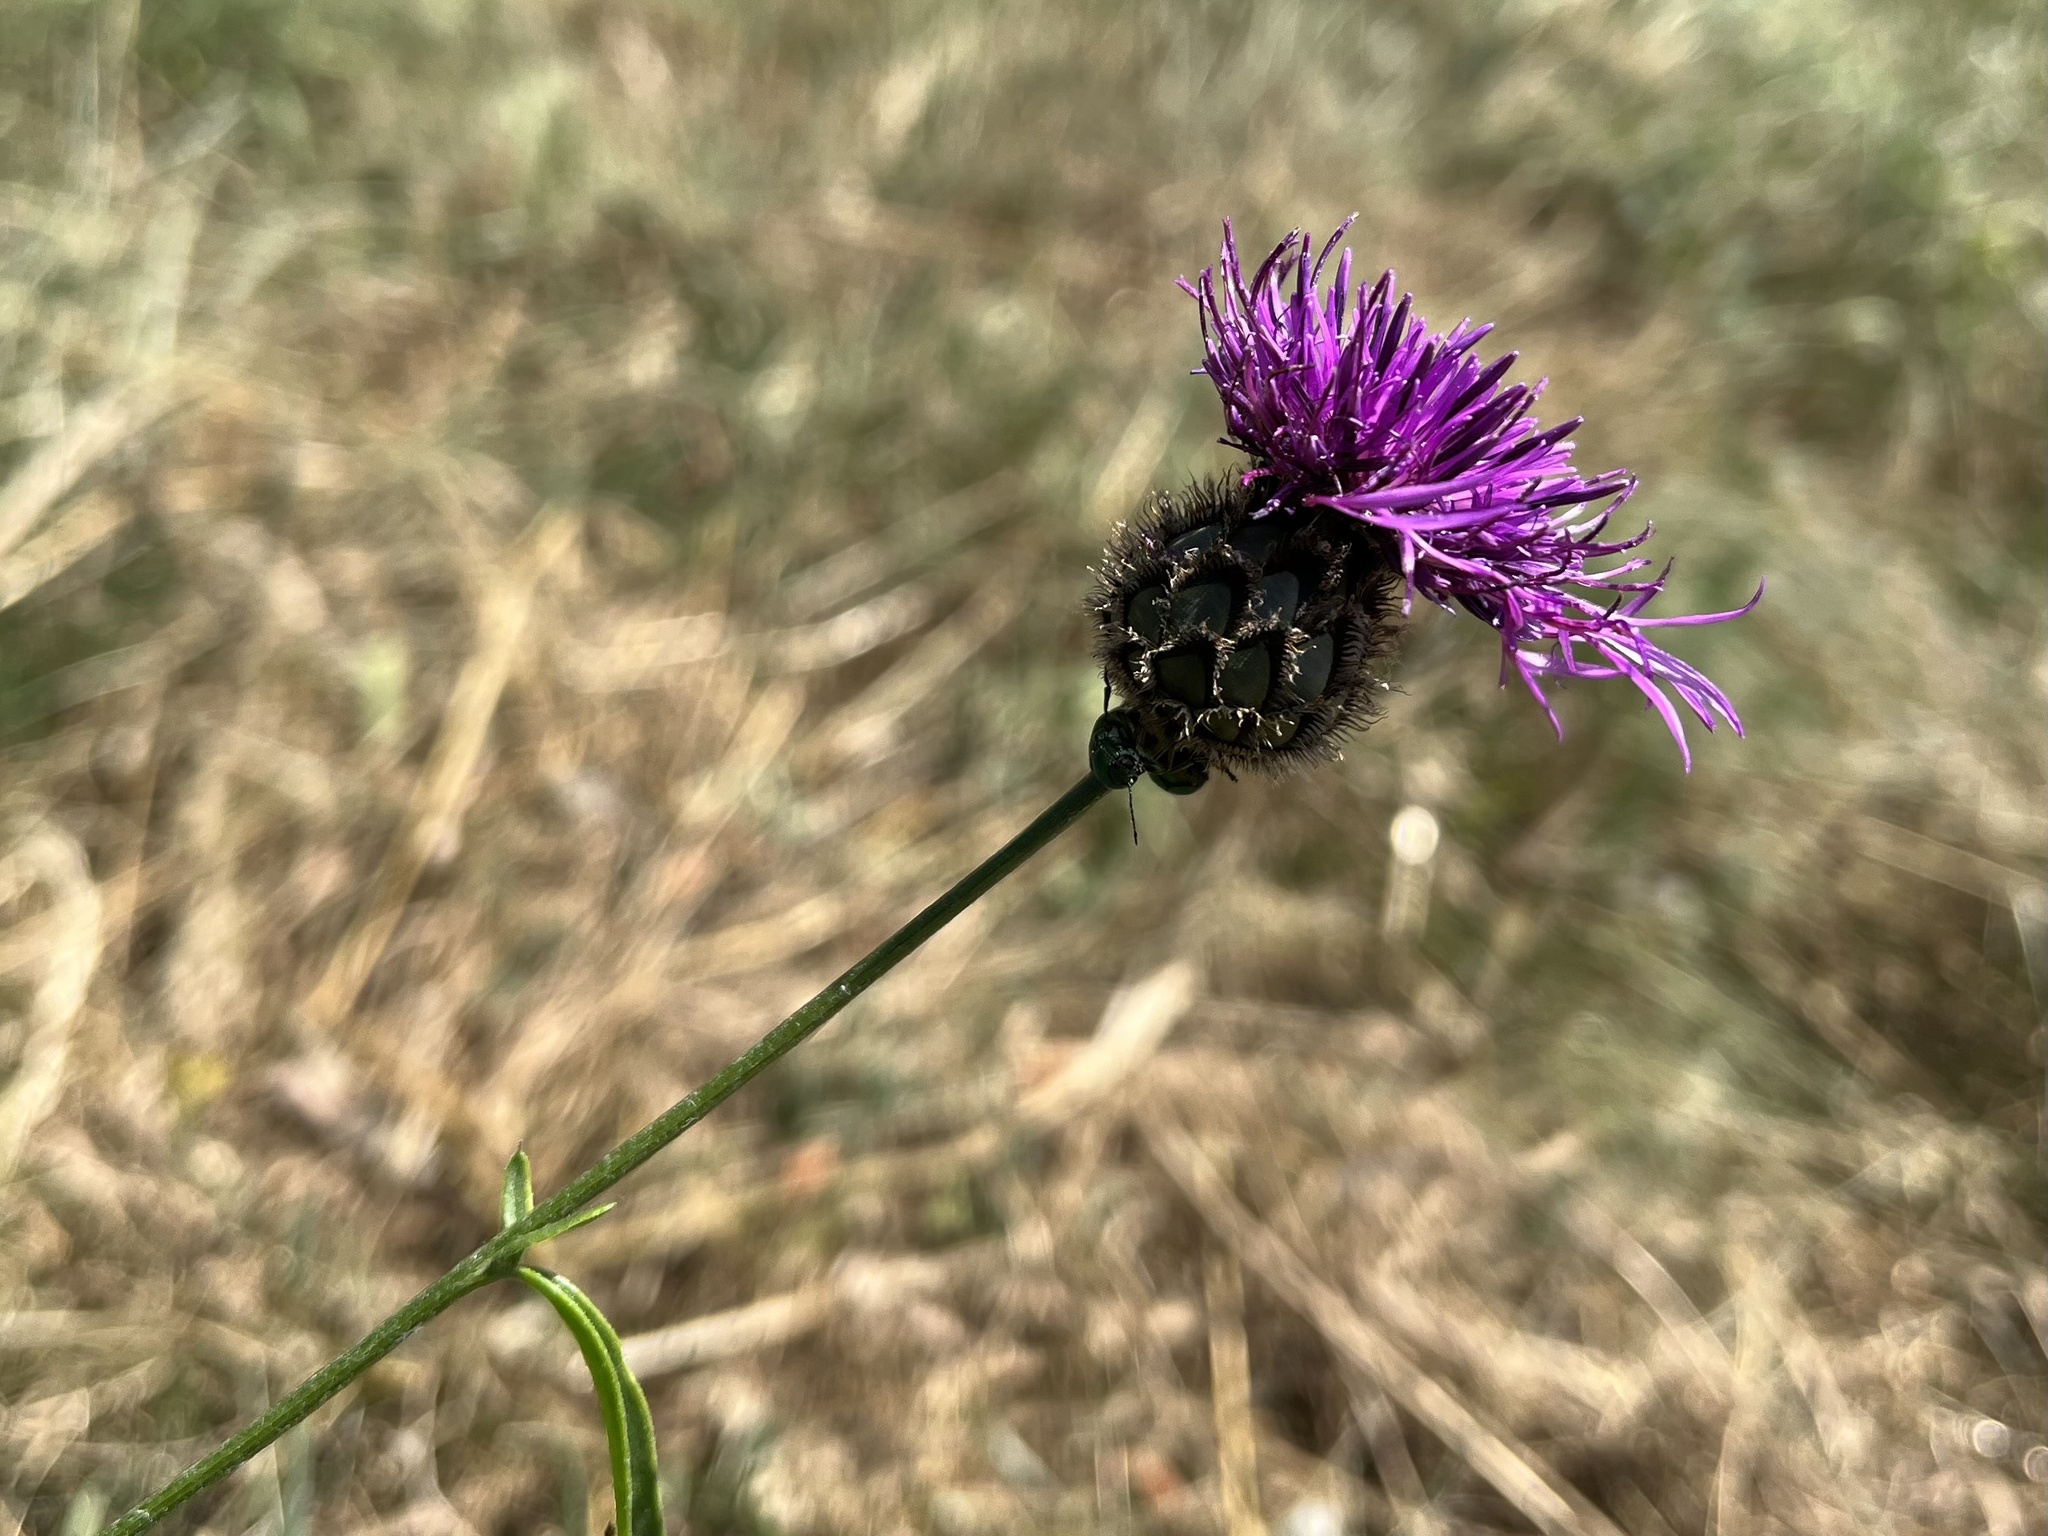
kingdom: Plantae
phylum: Tracheophyta
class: Magnoliopsida
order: Asterales
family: Asteraceae
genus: Centaurea
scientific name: Centaurea scabiosa
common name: Greater knapweed
